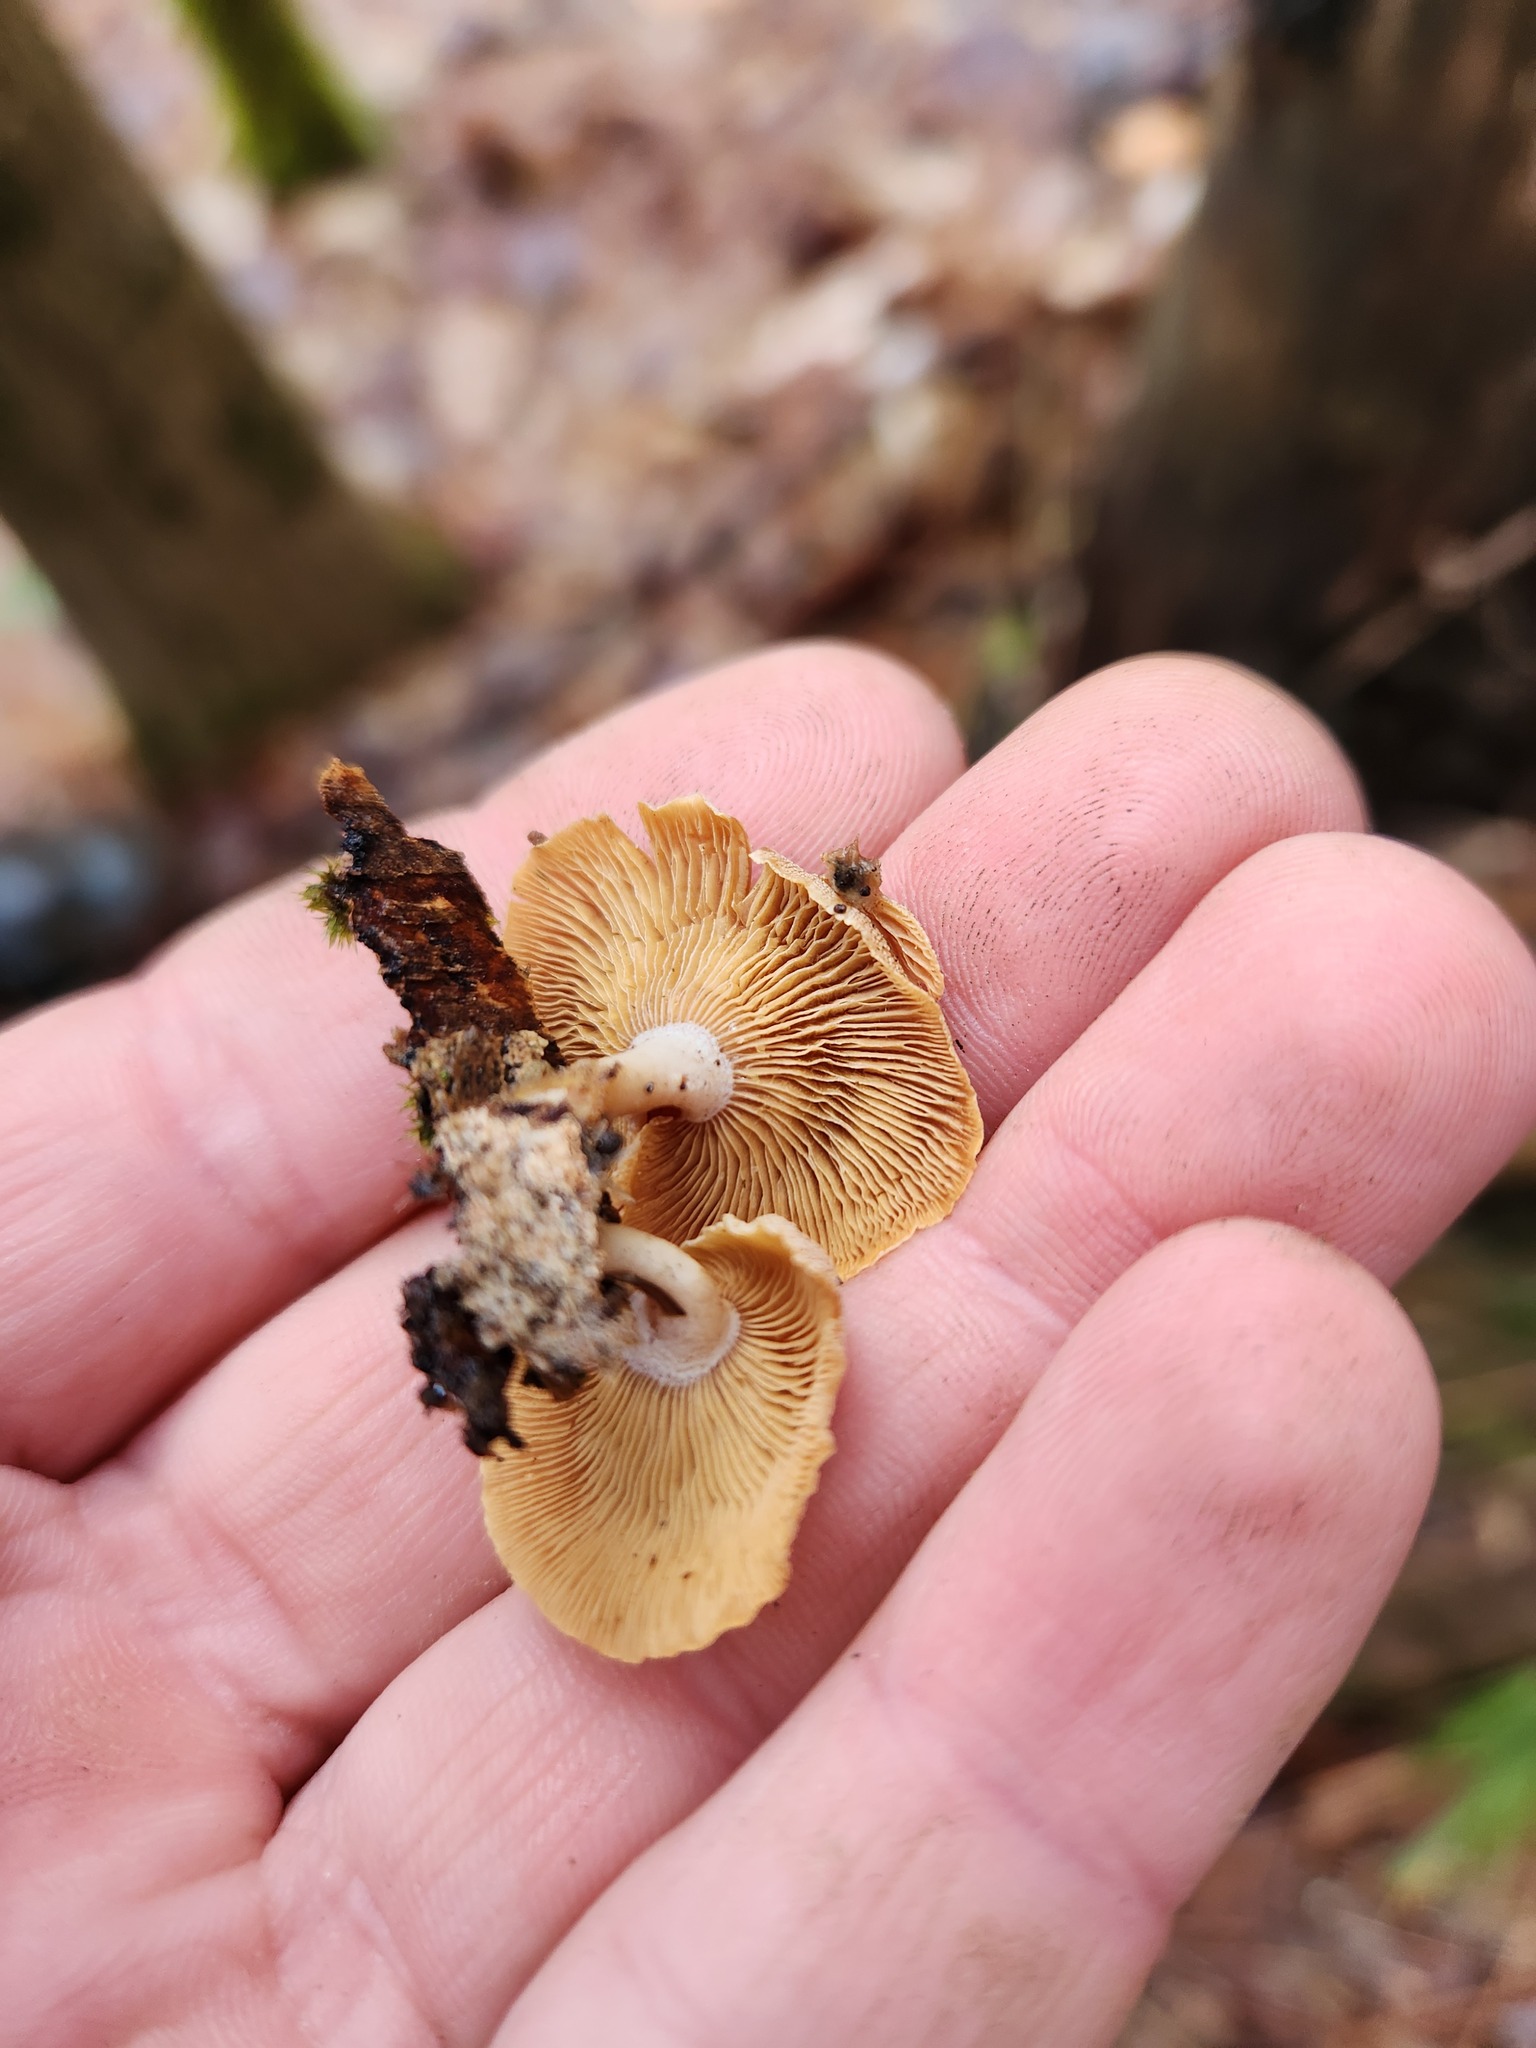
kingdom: Fungi
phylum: Basidiomycota
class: Agaricomycetes
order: Agaricales
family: Mycenaceae
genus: Panellus
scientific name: Panellus stipticus
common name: Bitter oysterling
